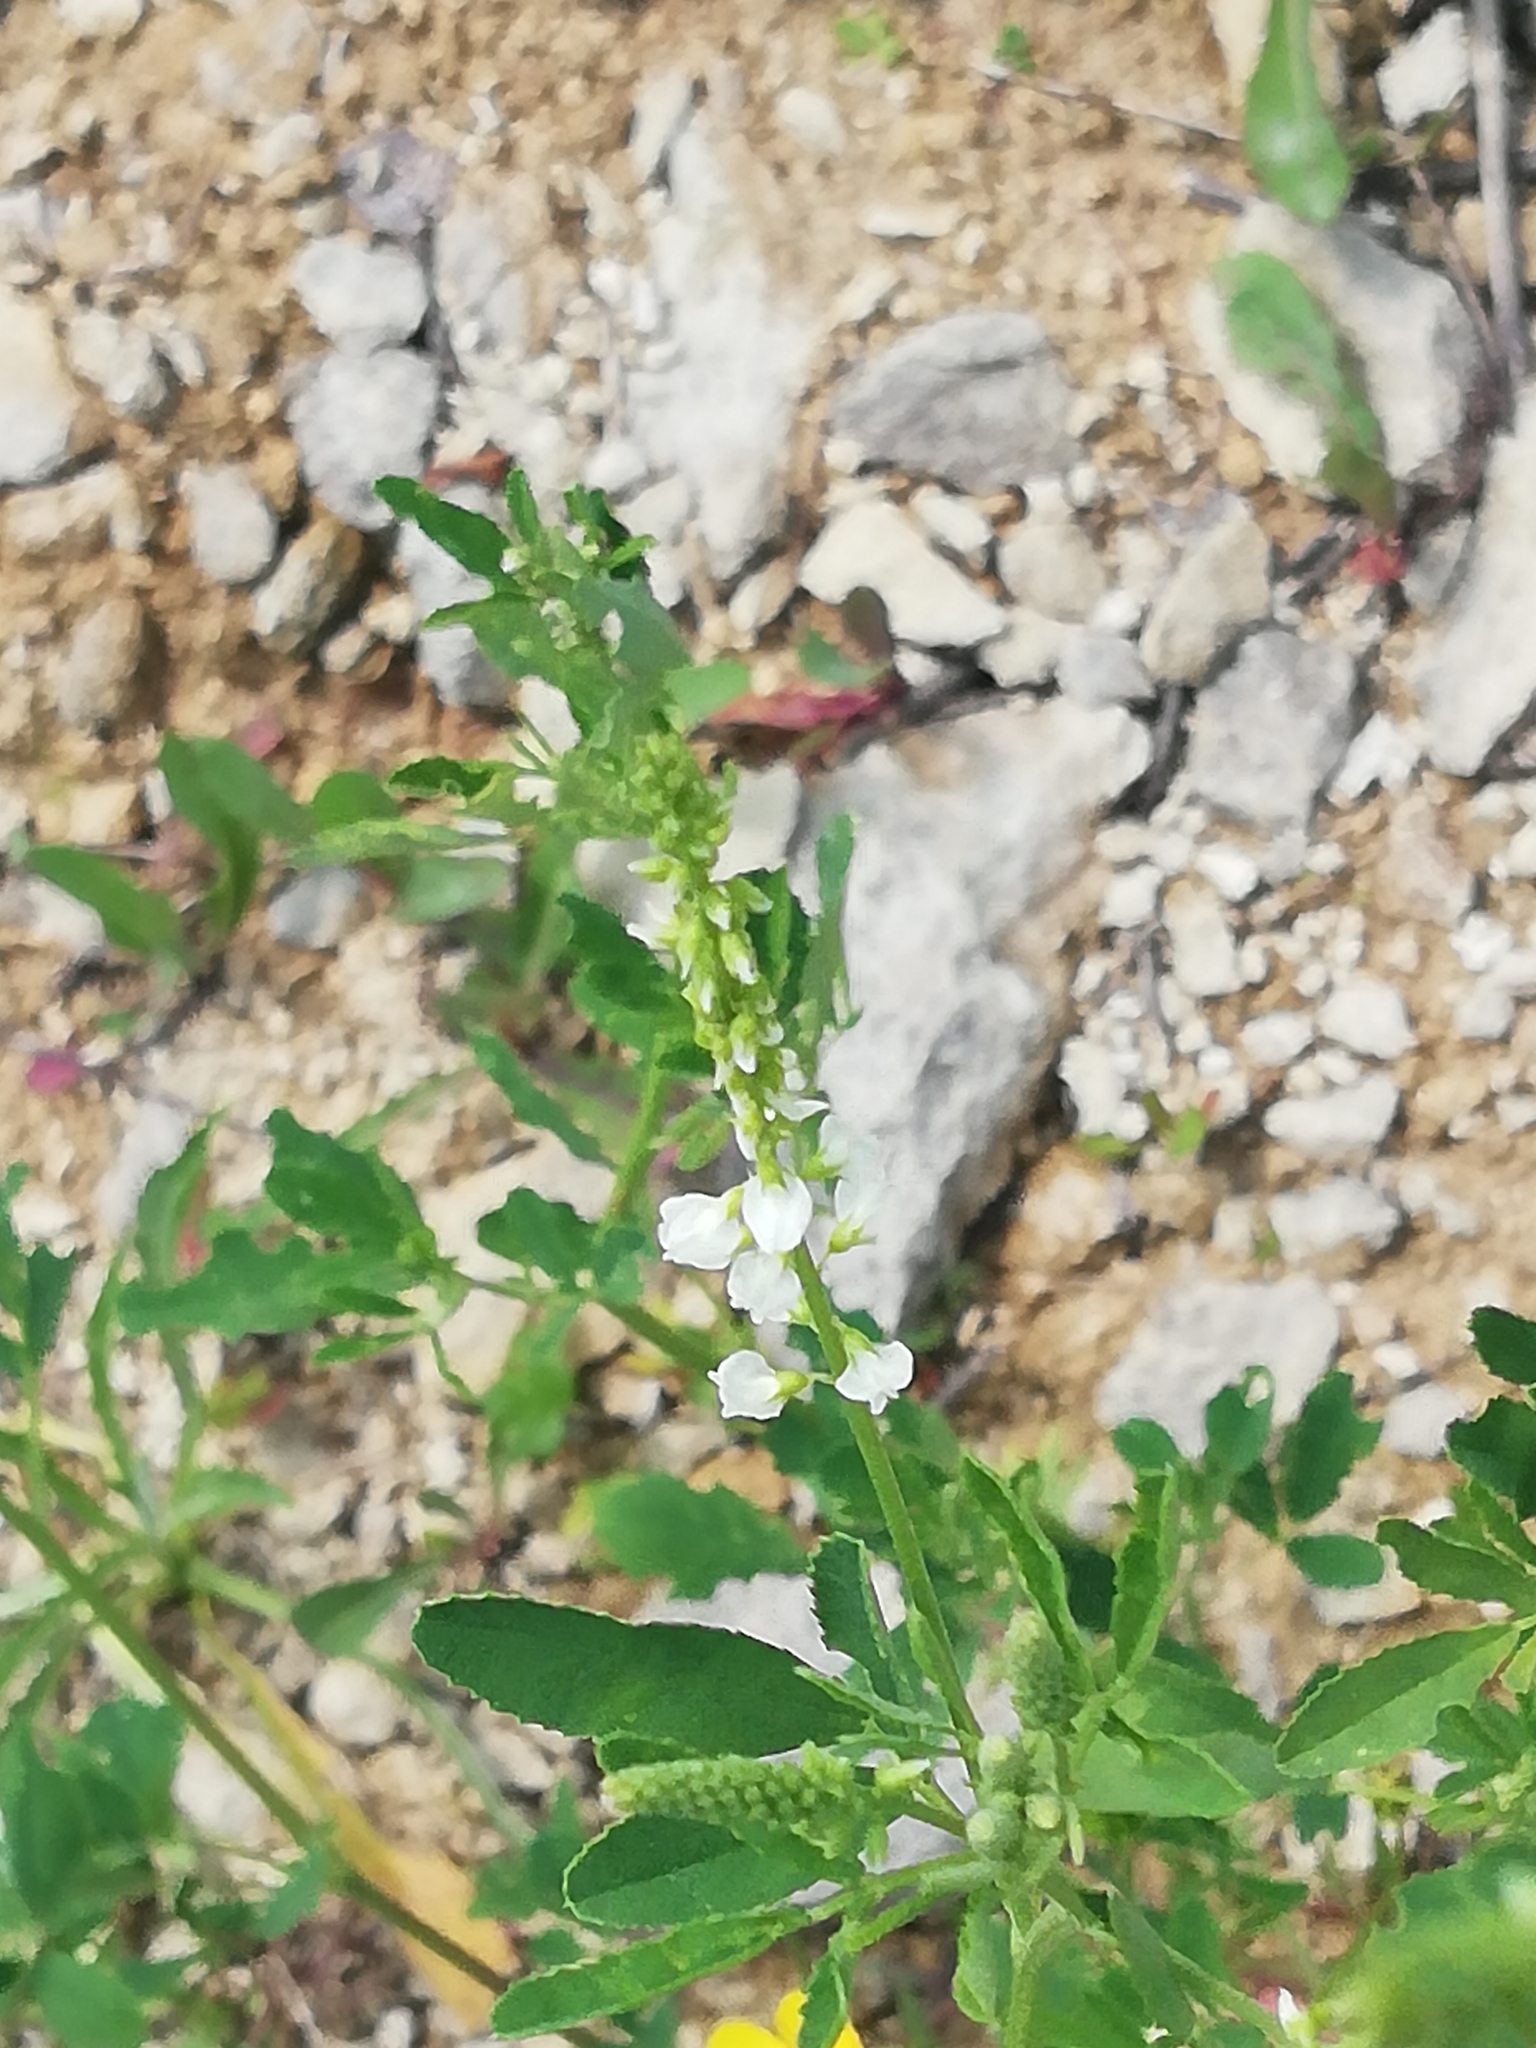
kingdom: Plantae
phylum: Tracheophyta
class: Magnoliopsida
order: Fabales
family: Fabaceae
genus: Melilotus
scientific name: Melilotus albus
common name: White melilot
